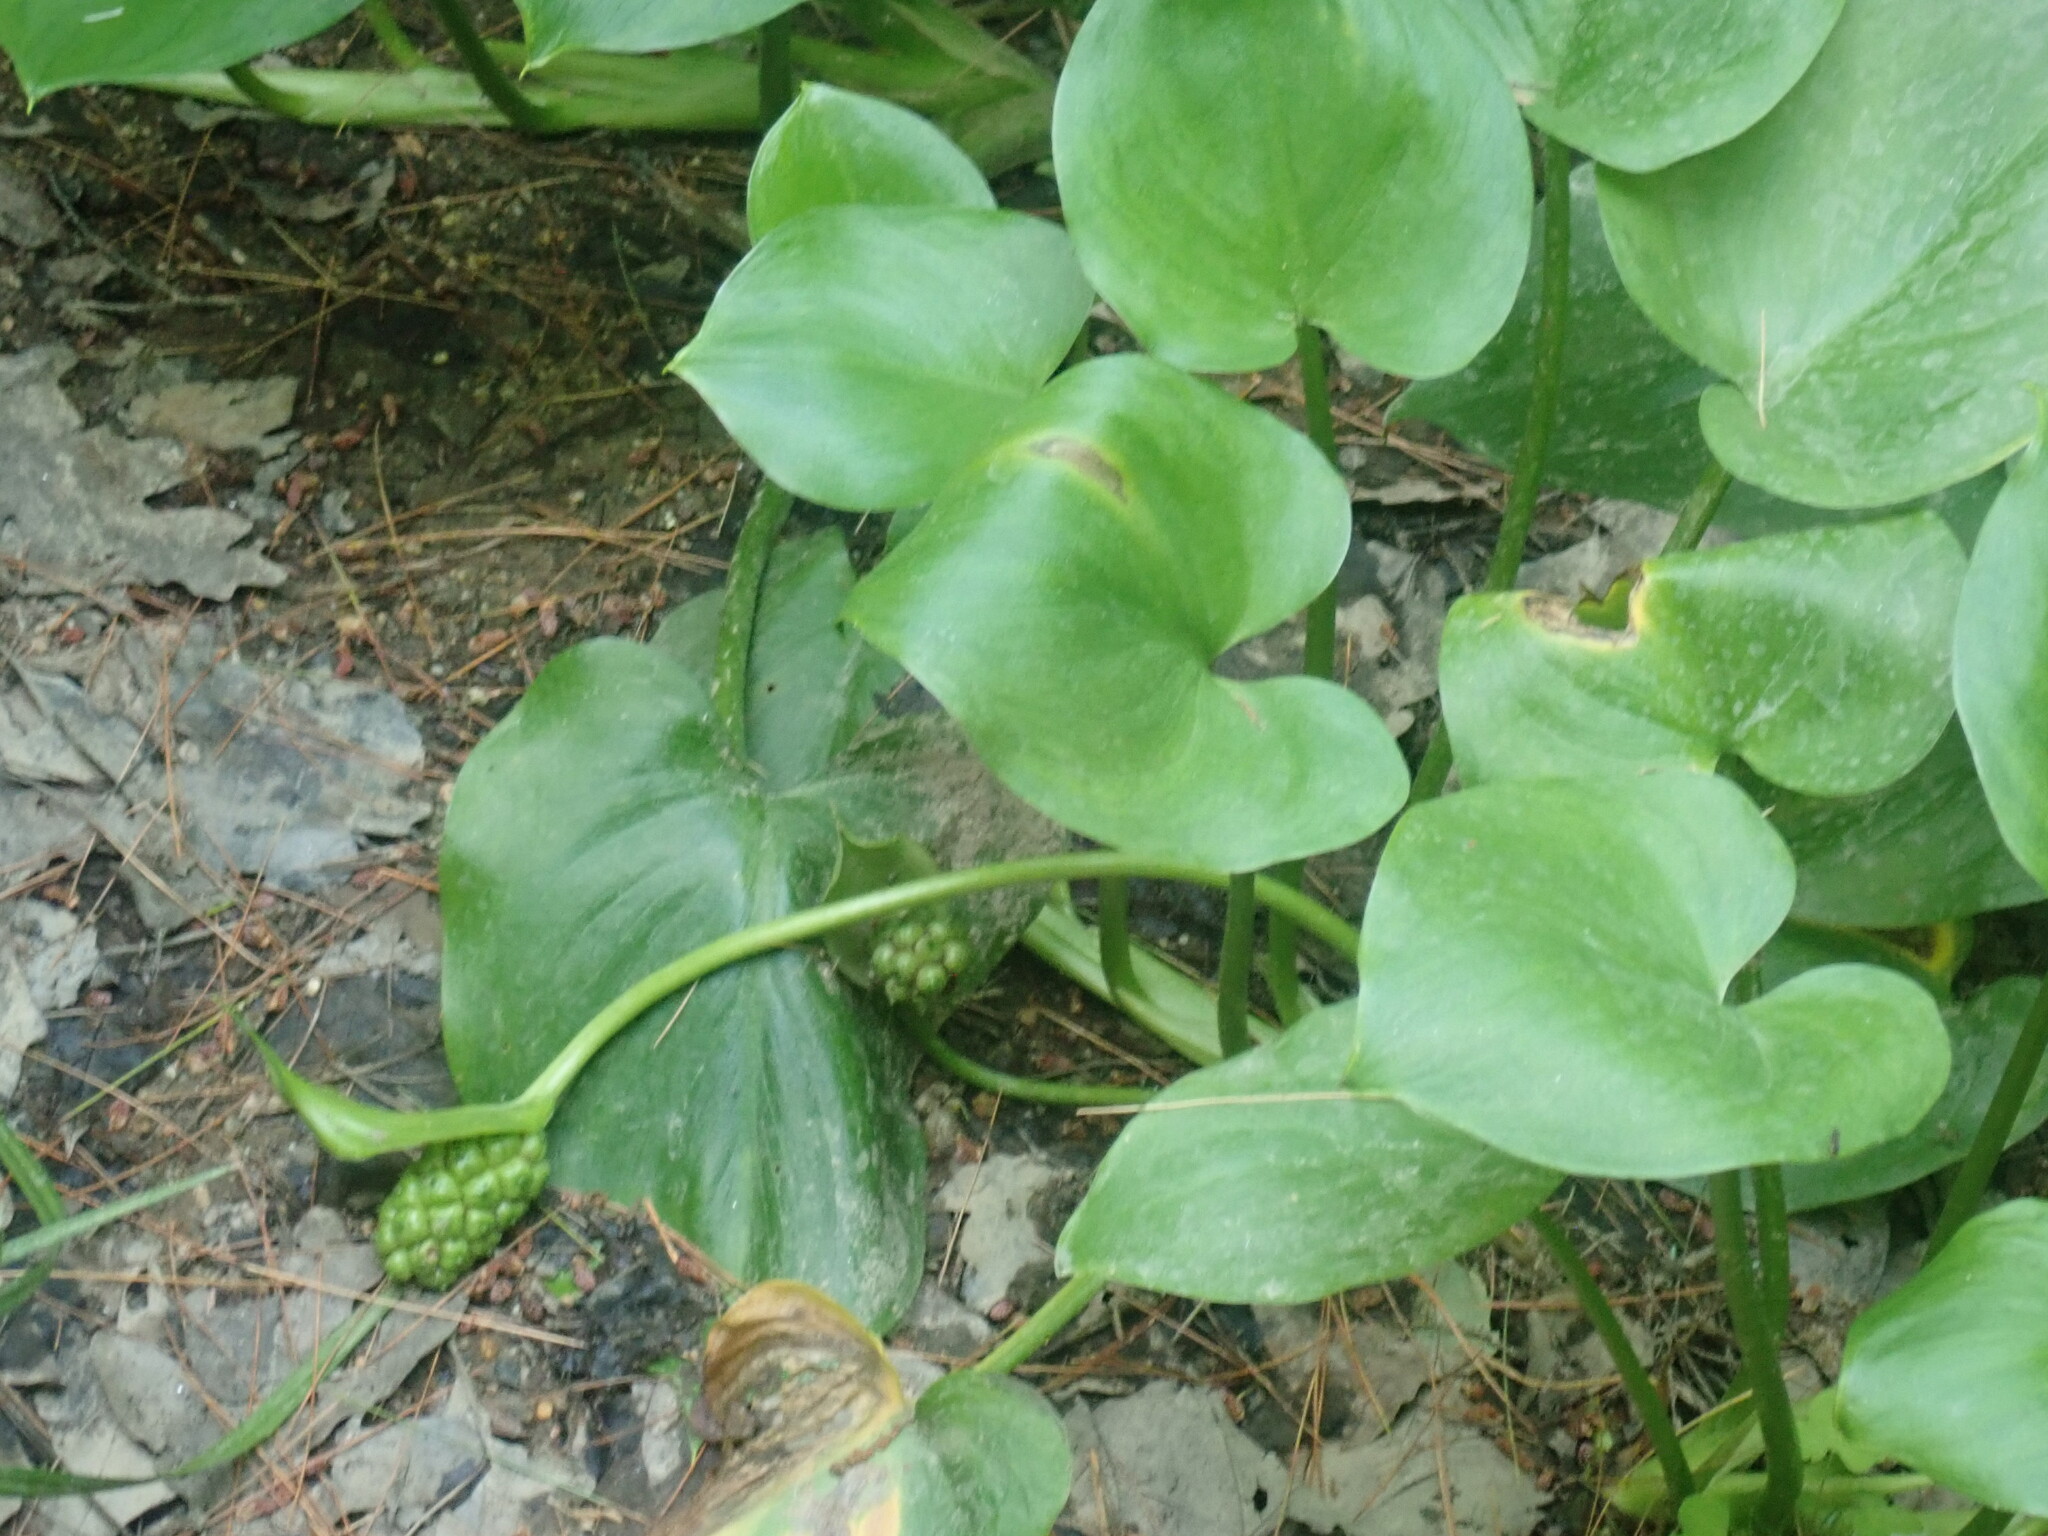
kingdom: Plantae
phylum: Tracheophyta
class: Liliopsida
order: Alismatales
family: Araceae
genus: Calla
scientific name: Calla palustris
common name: Bog arum
